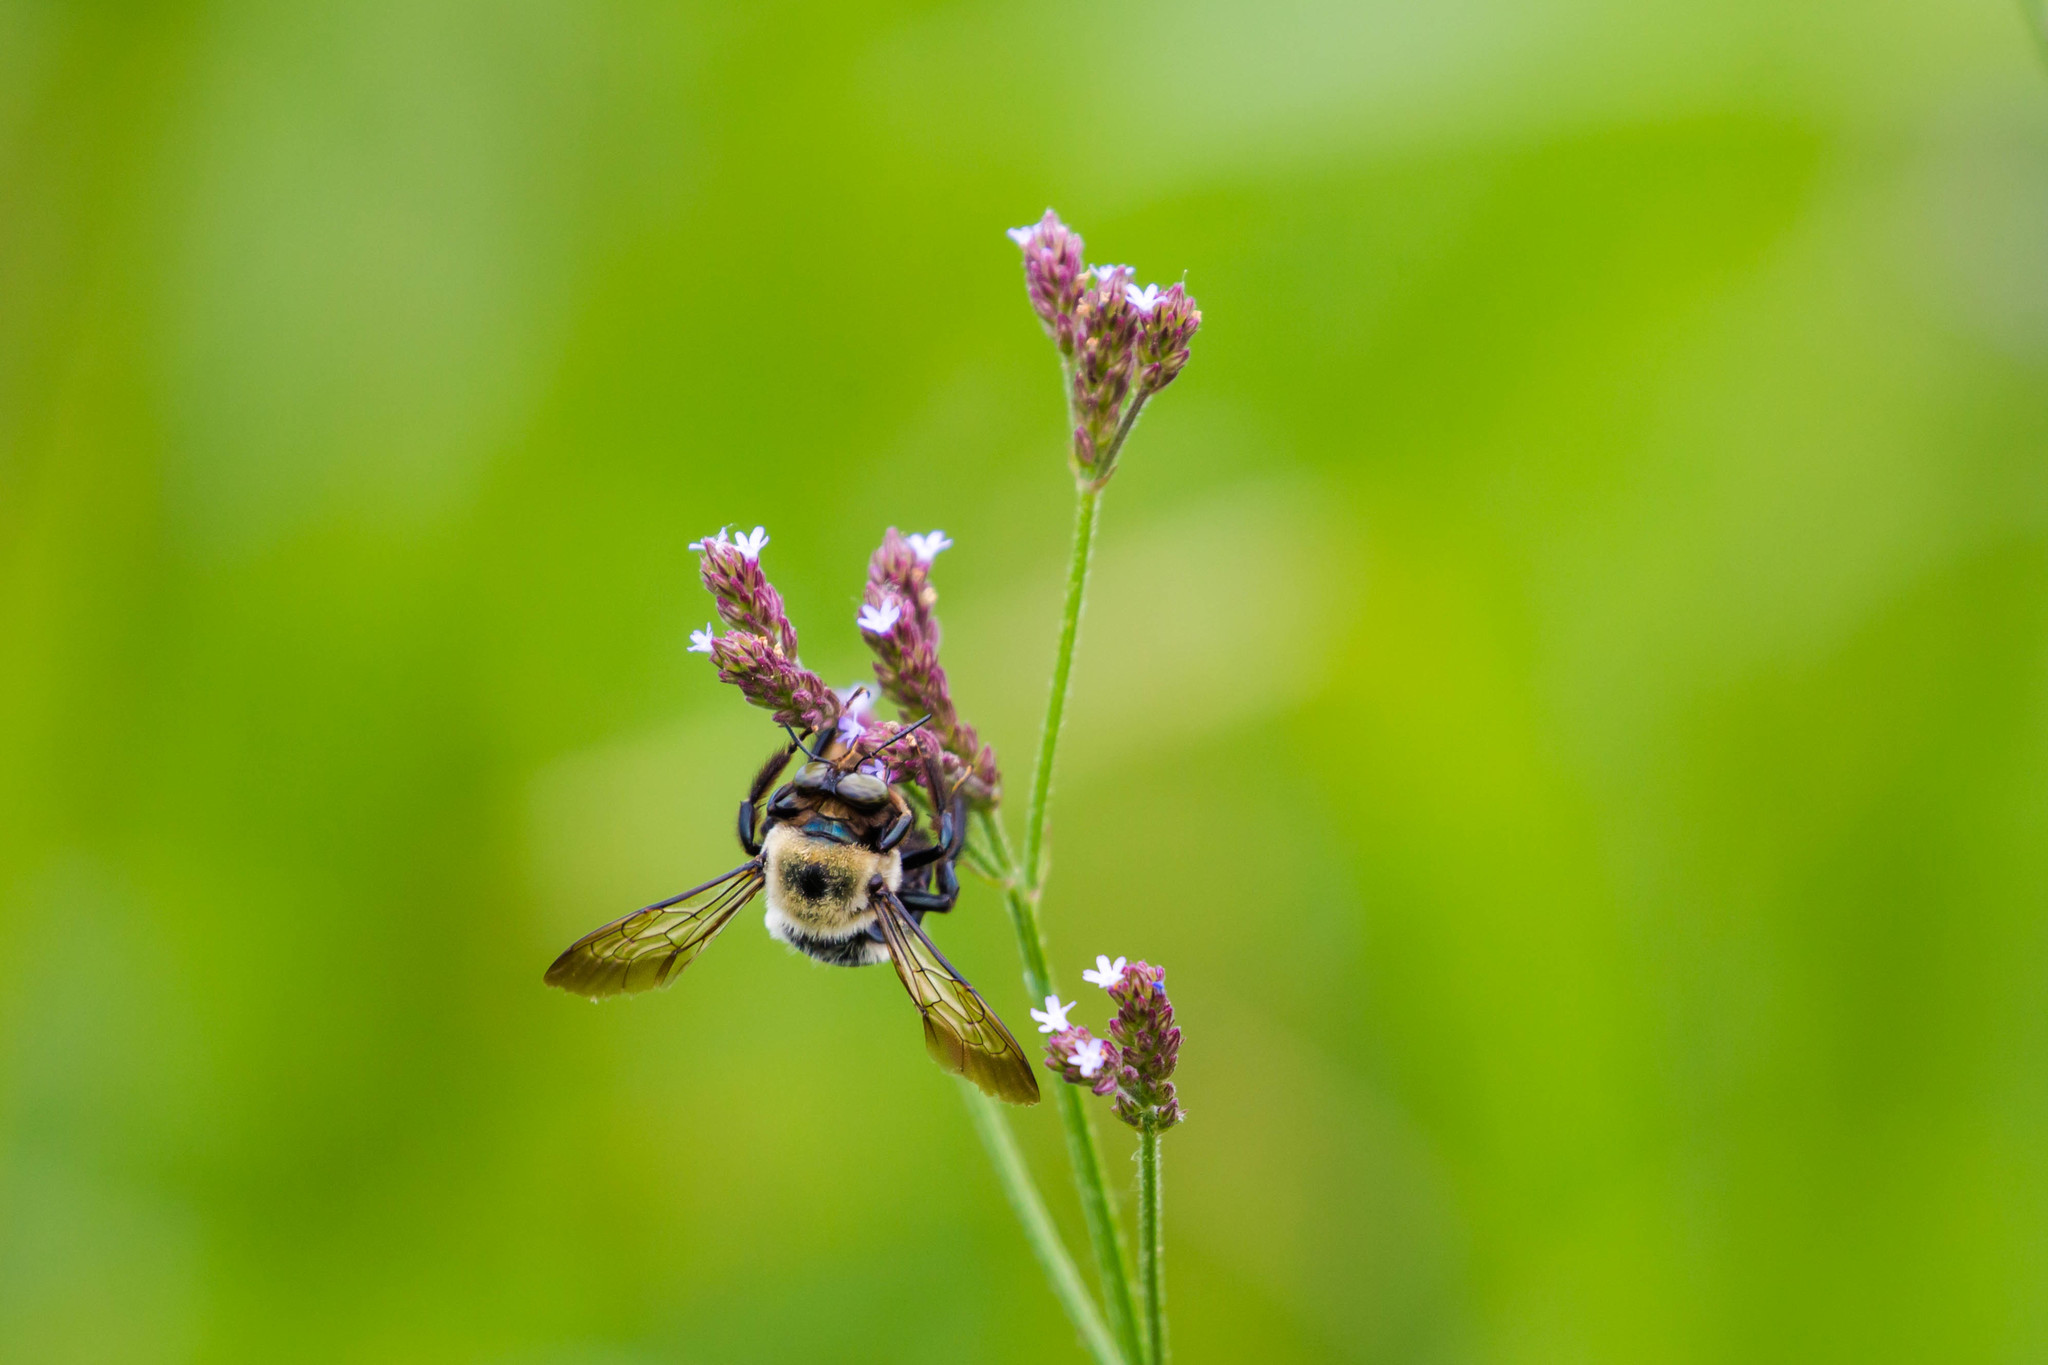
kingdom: Animalia
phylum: Arthropoda
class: Insecta
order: Hymenoptera
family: Apidae
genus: Xylocopa
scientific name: Xylocopa virginica
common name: Carpenter bee
